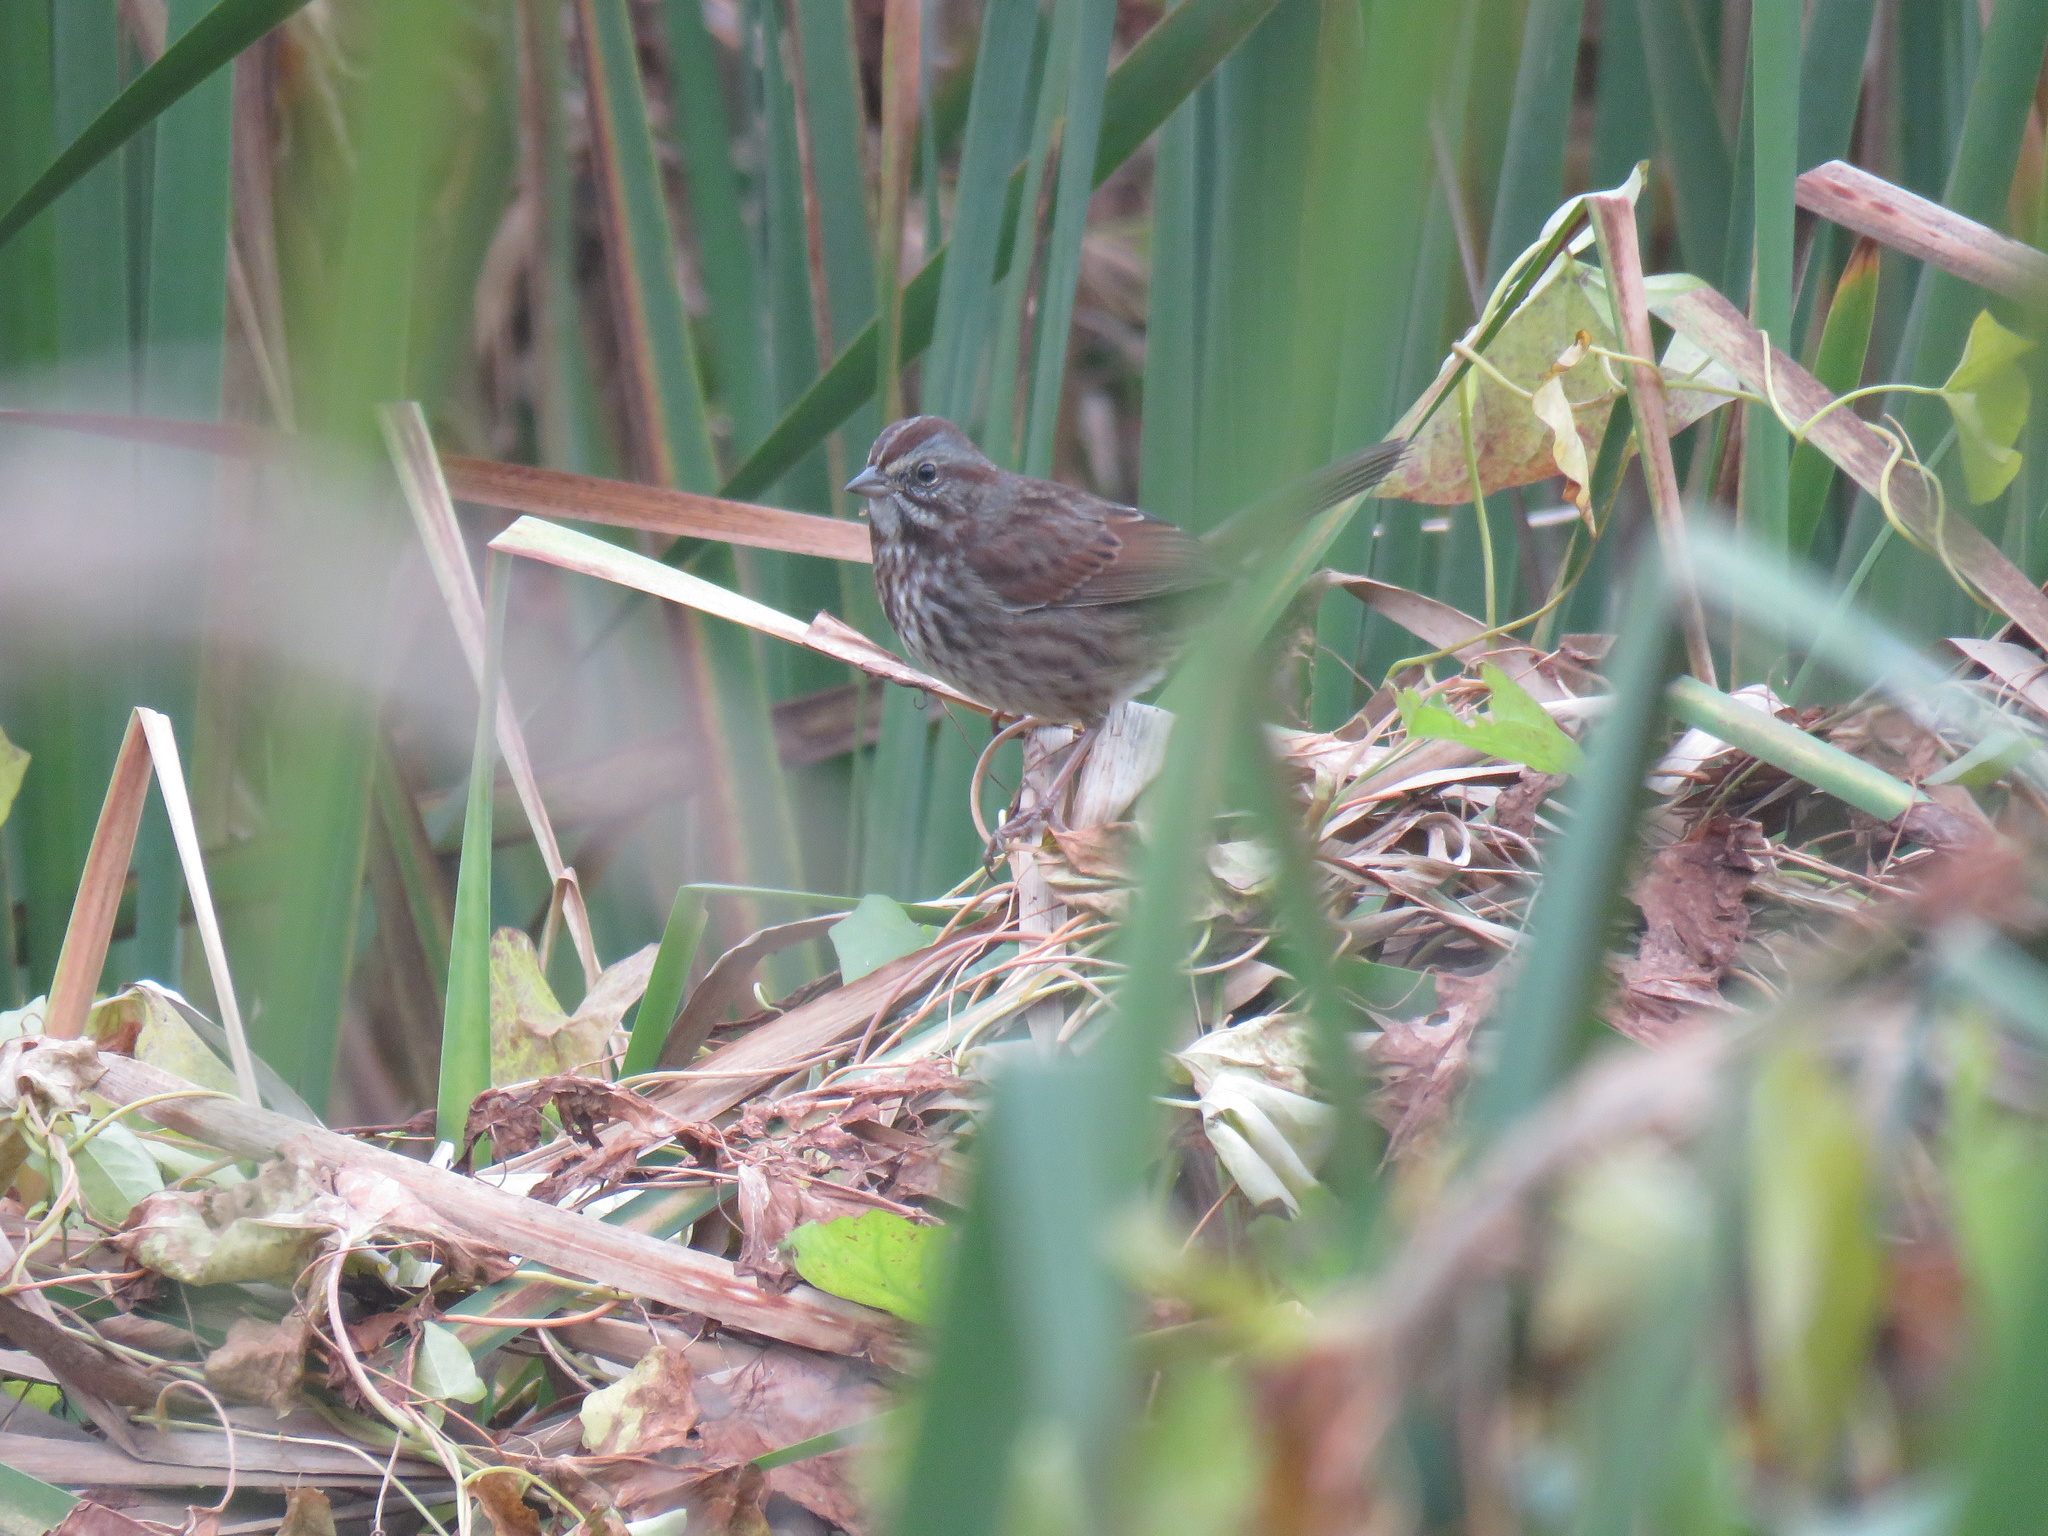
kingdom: Animalia
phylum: Chordata
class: Aves
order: Passeriformes
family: Passerellidae
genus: Melospiza
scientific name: Melospiza melodia
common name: Song sparrow
